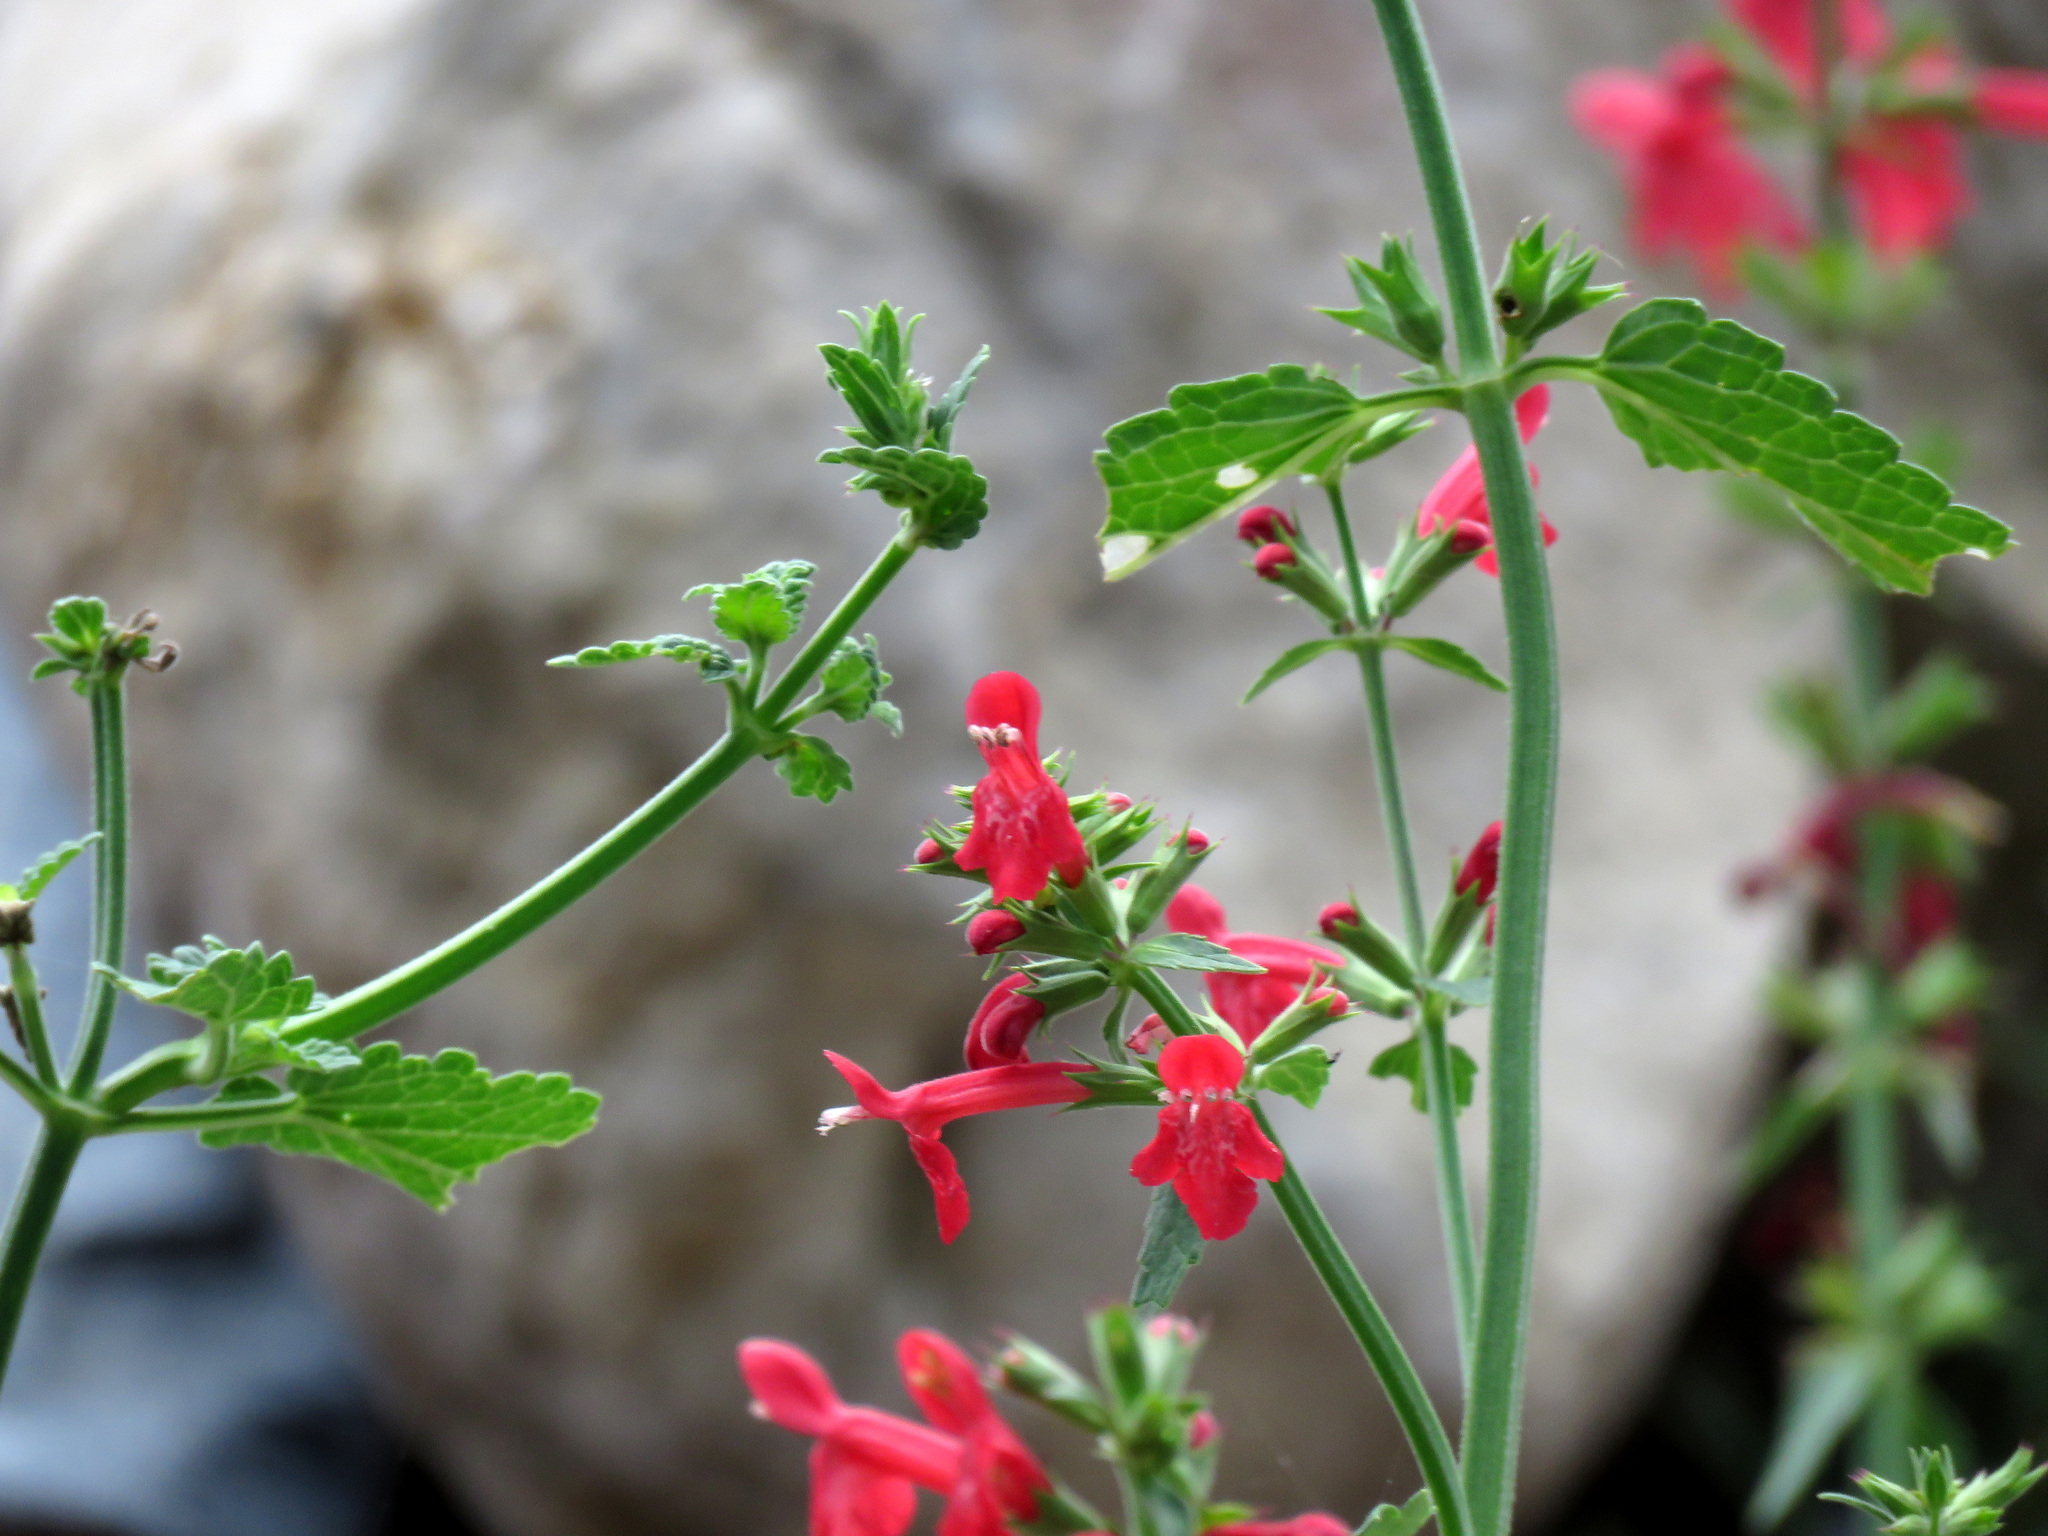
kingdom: Plantae
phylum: Tracheophyta
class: Magnoliopsida
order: Lamiales
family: Lamiaceae
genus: Stachys
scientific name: Stachys coccinea
